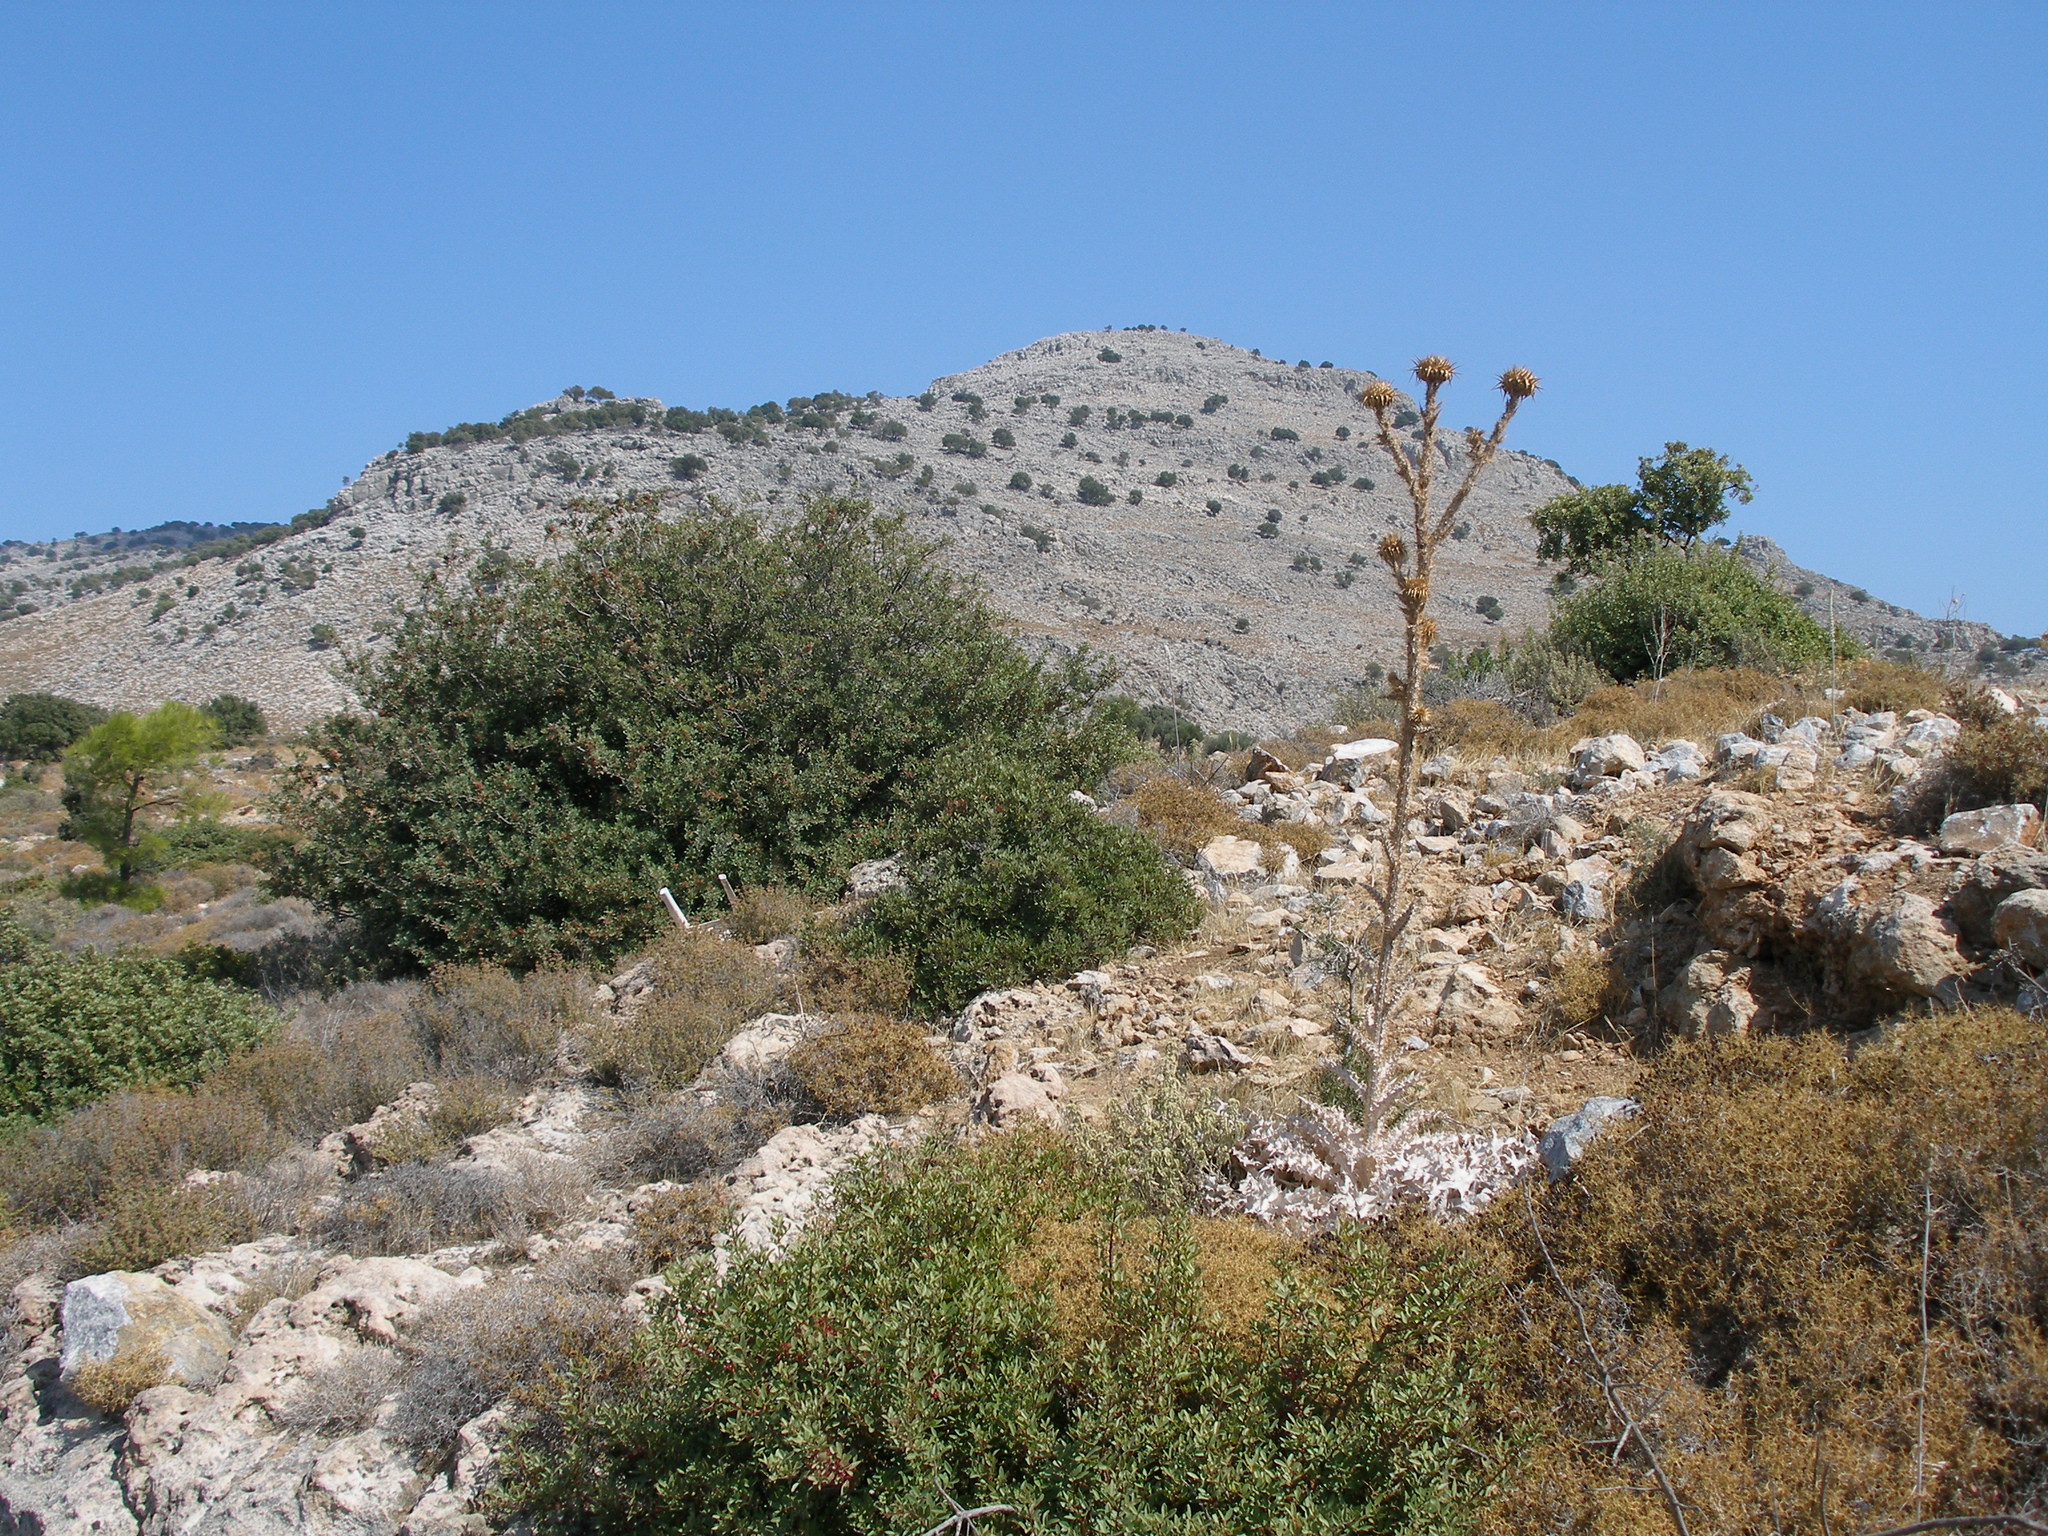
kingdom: Plantae
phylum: Tracheophyta
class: Magnoliopsida
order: Asterales
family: Asteraceae
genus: Onopordum
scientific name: Onopordum bracteatum
